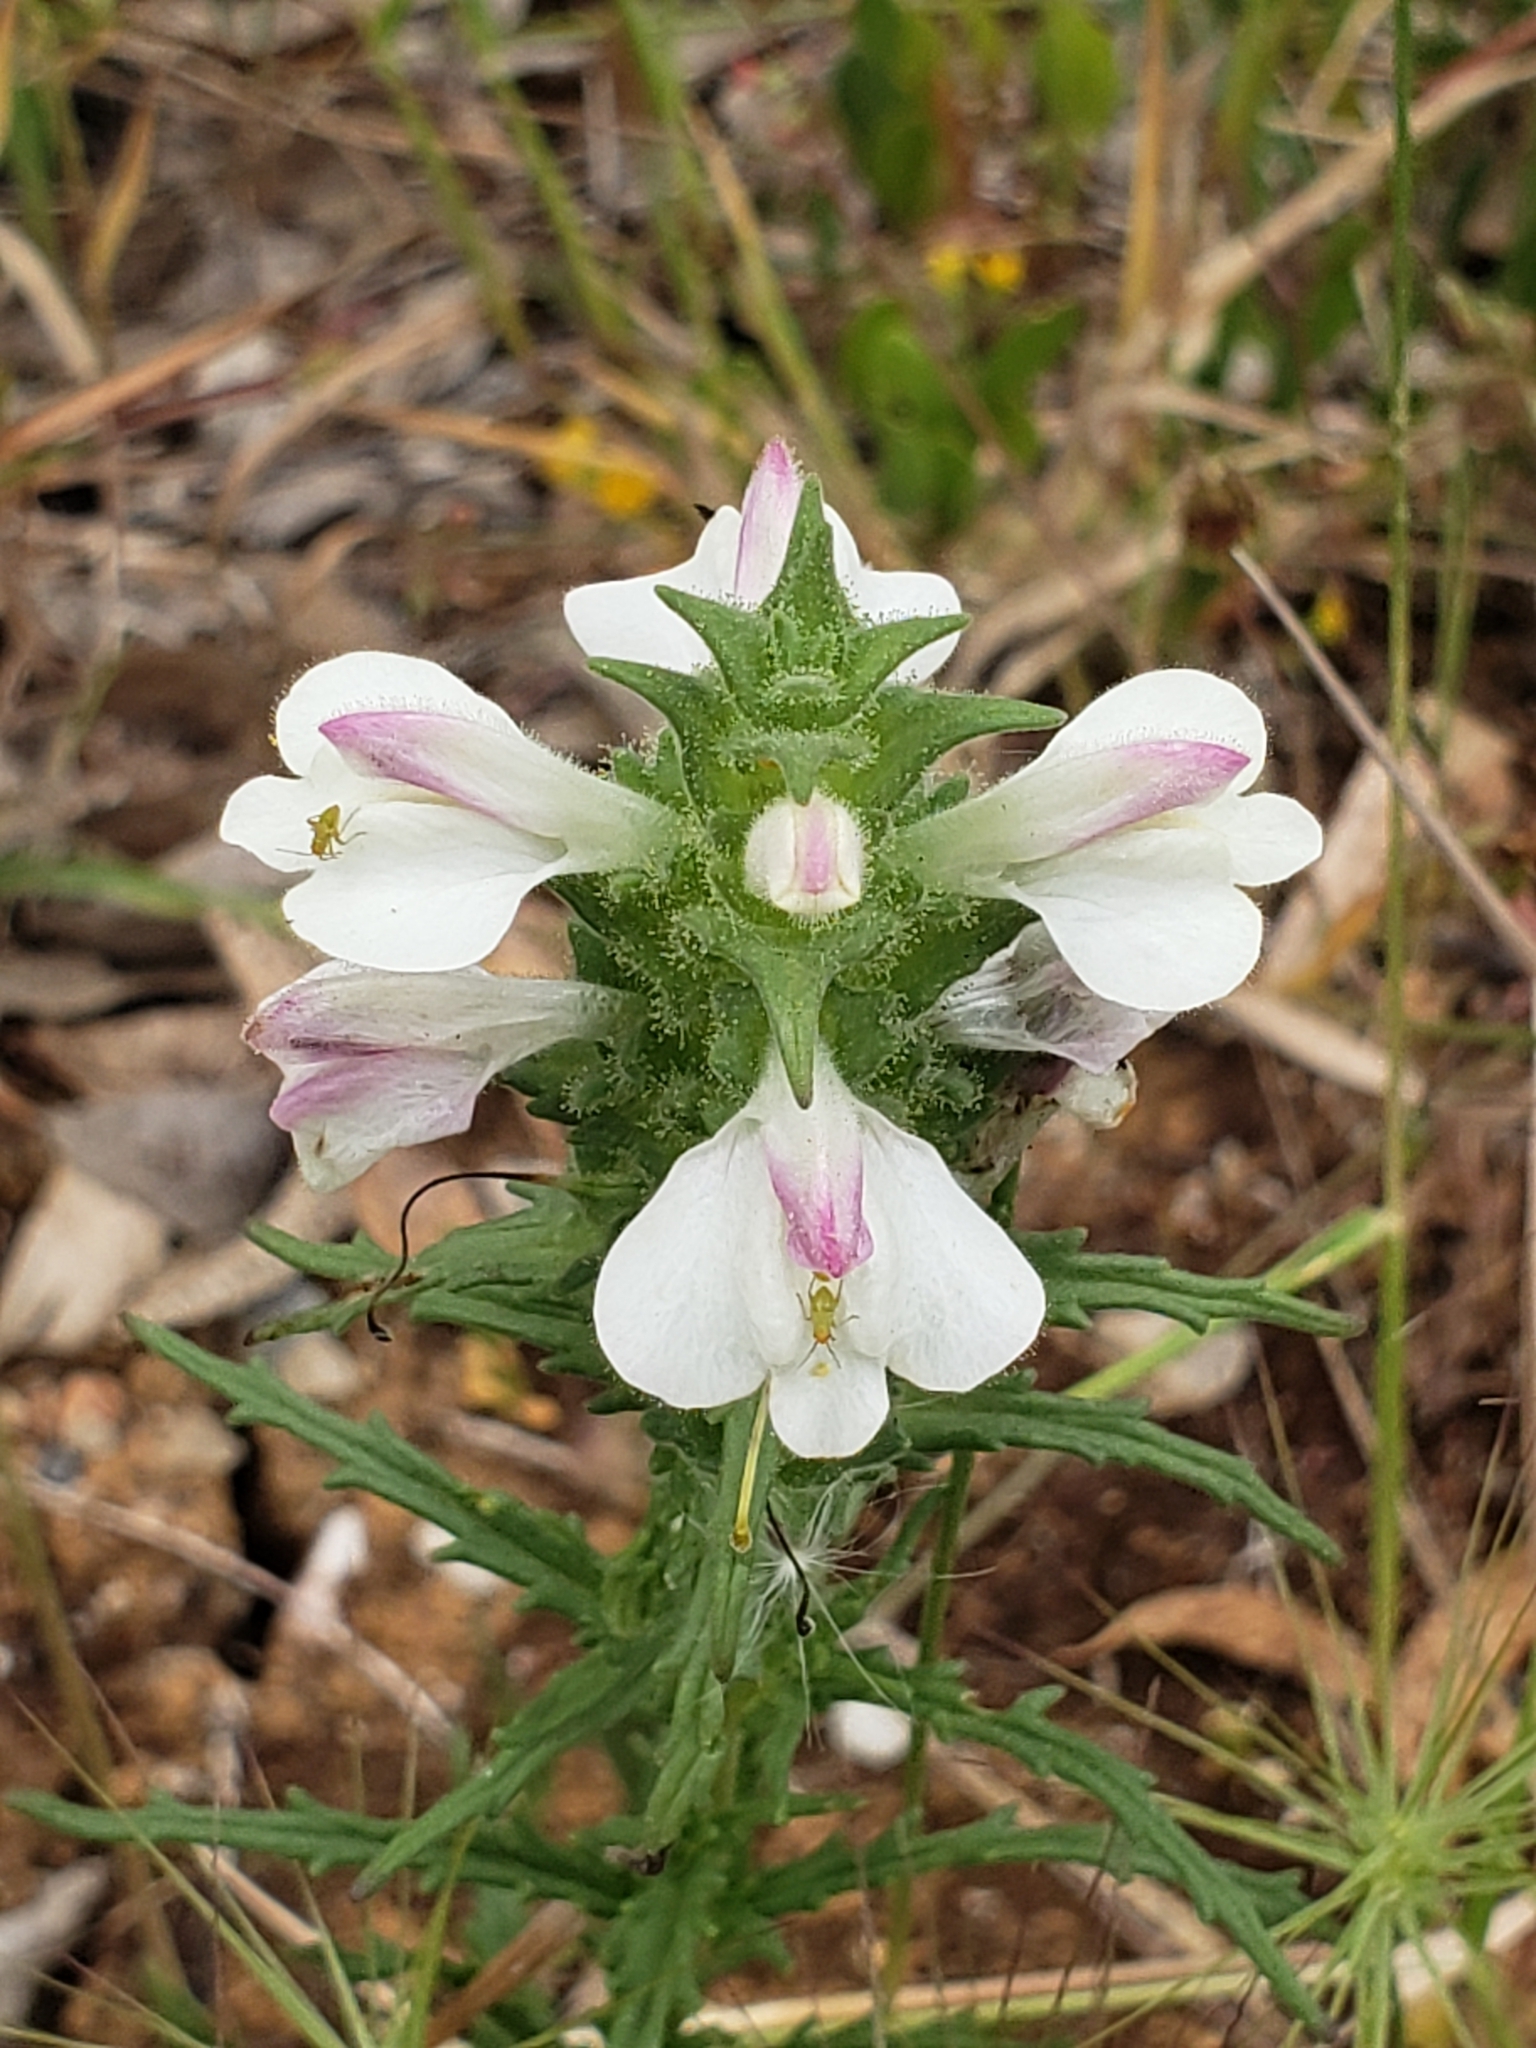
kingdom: Plantae
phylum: Tracheophyta
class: Magnoliopsida
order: Lamiales
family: Orobanchaceae
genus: Bellardia
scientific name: Bellardia trixago
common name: Mediterranean lineseed
